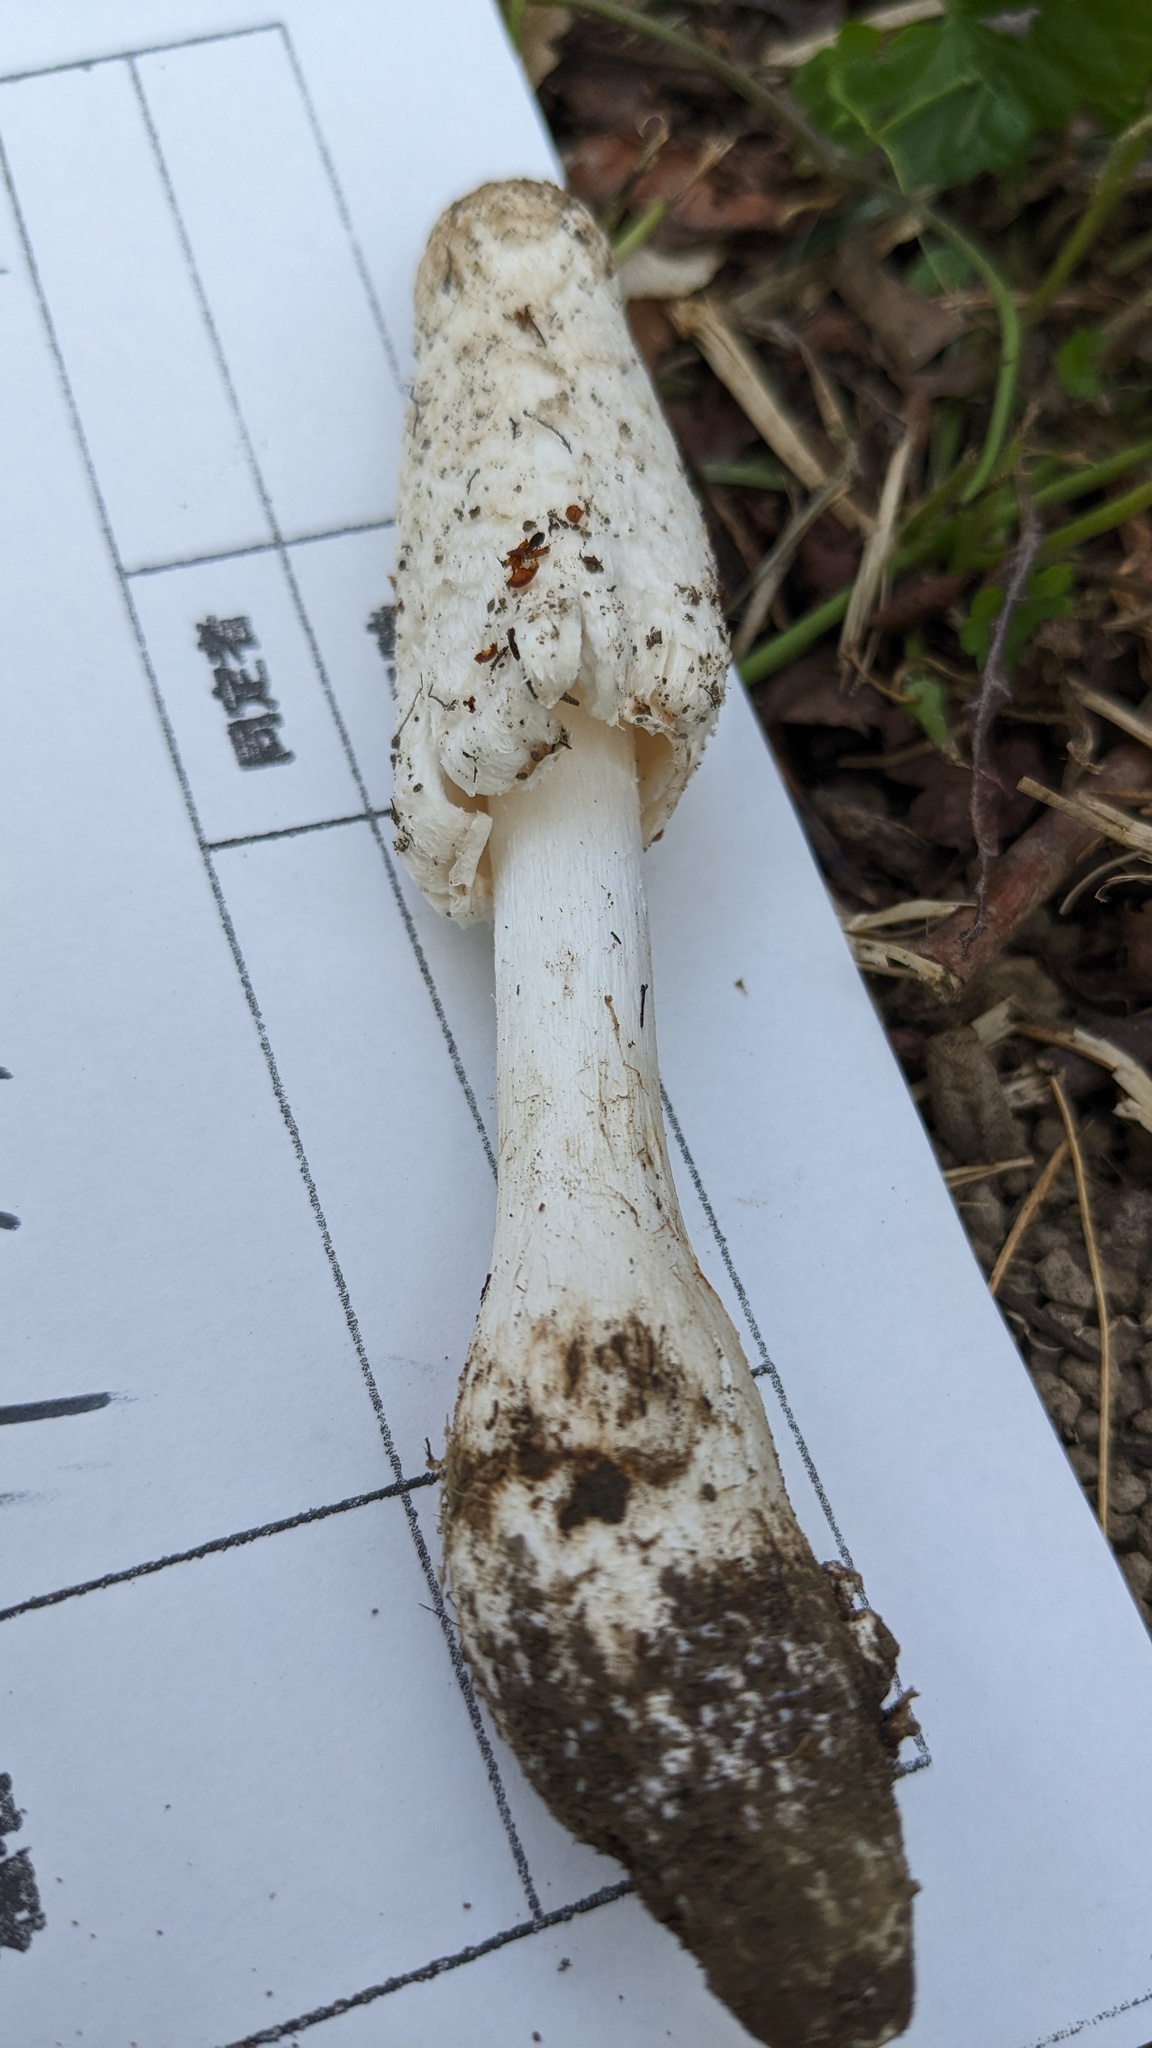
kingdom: Fungi
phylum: Basidiomycota
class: Agaricomycetes
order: Agaricales
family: Agaricaceae
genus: Coprinus
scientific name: Coprinus comatus
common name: Lawyer's wig
